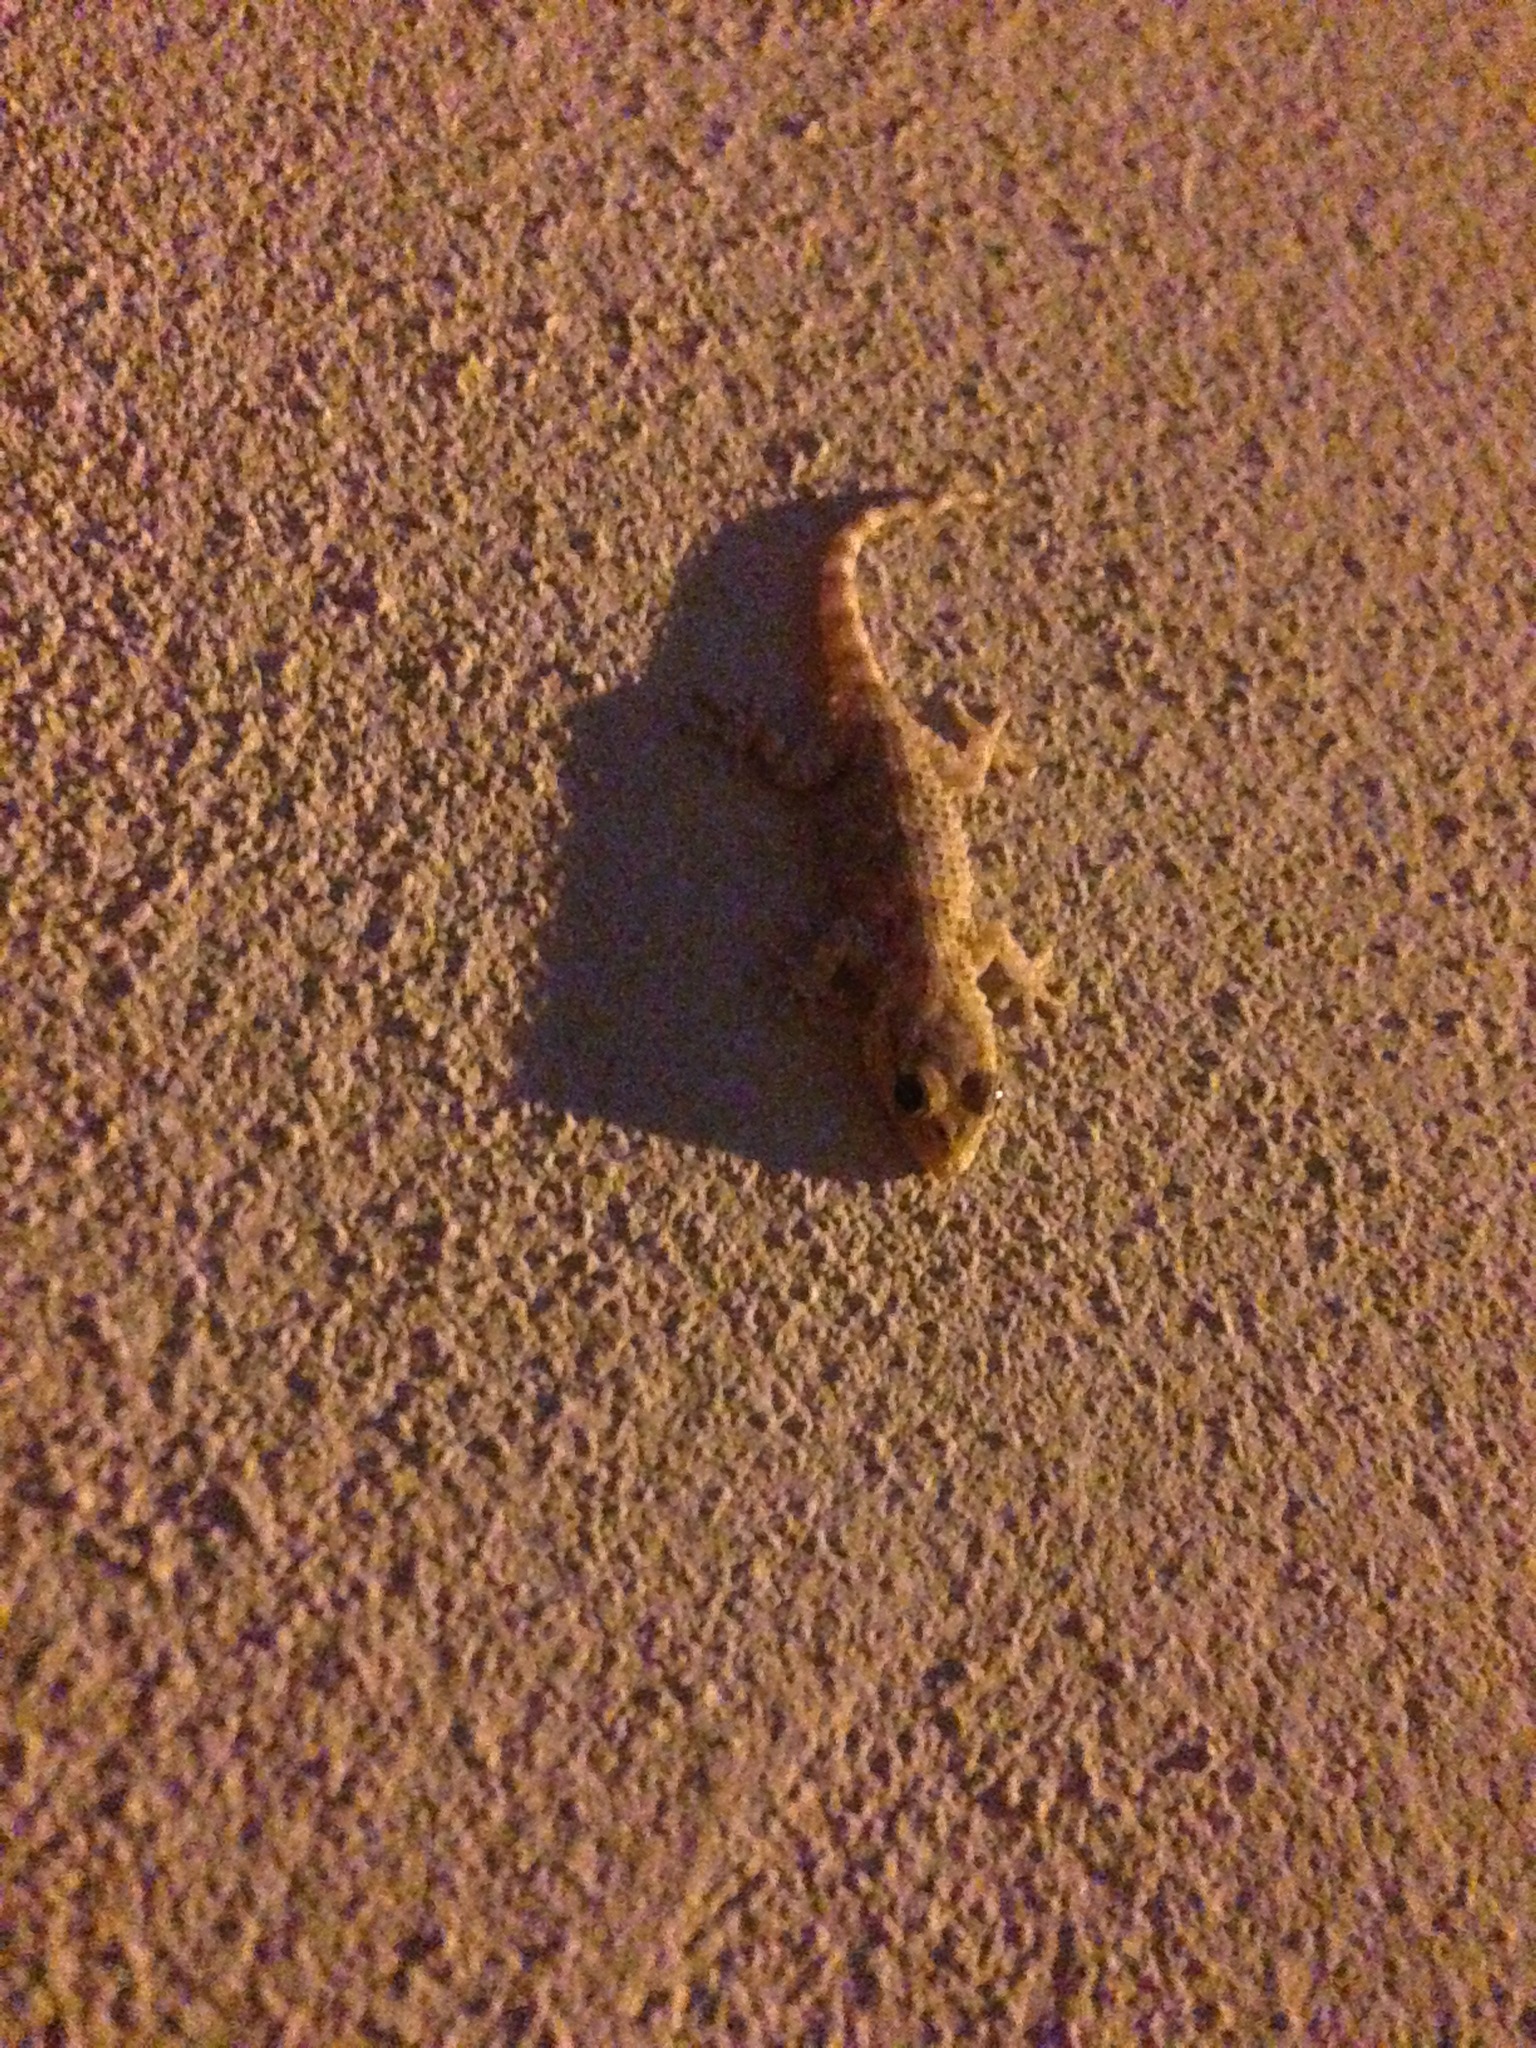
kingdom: Animalia
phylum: Chordata
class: Squamata
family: Phyllodactylidae
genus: Tarentola
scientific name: Tarentola mauritanica
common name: Moorish gecko
